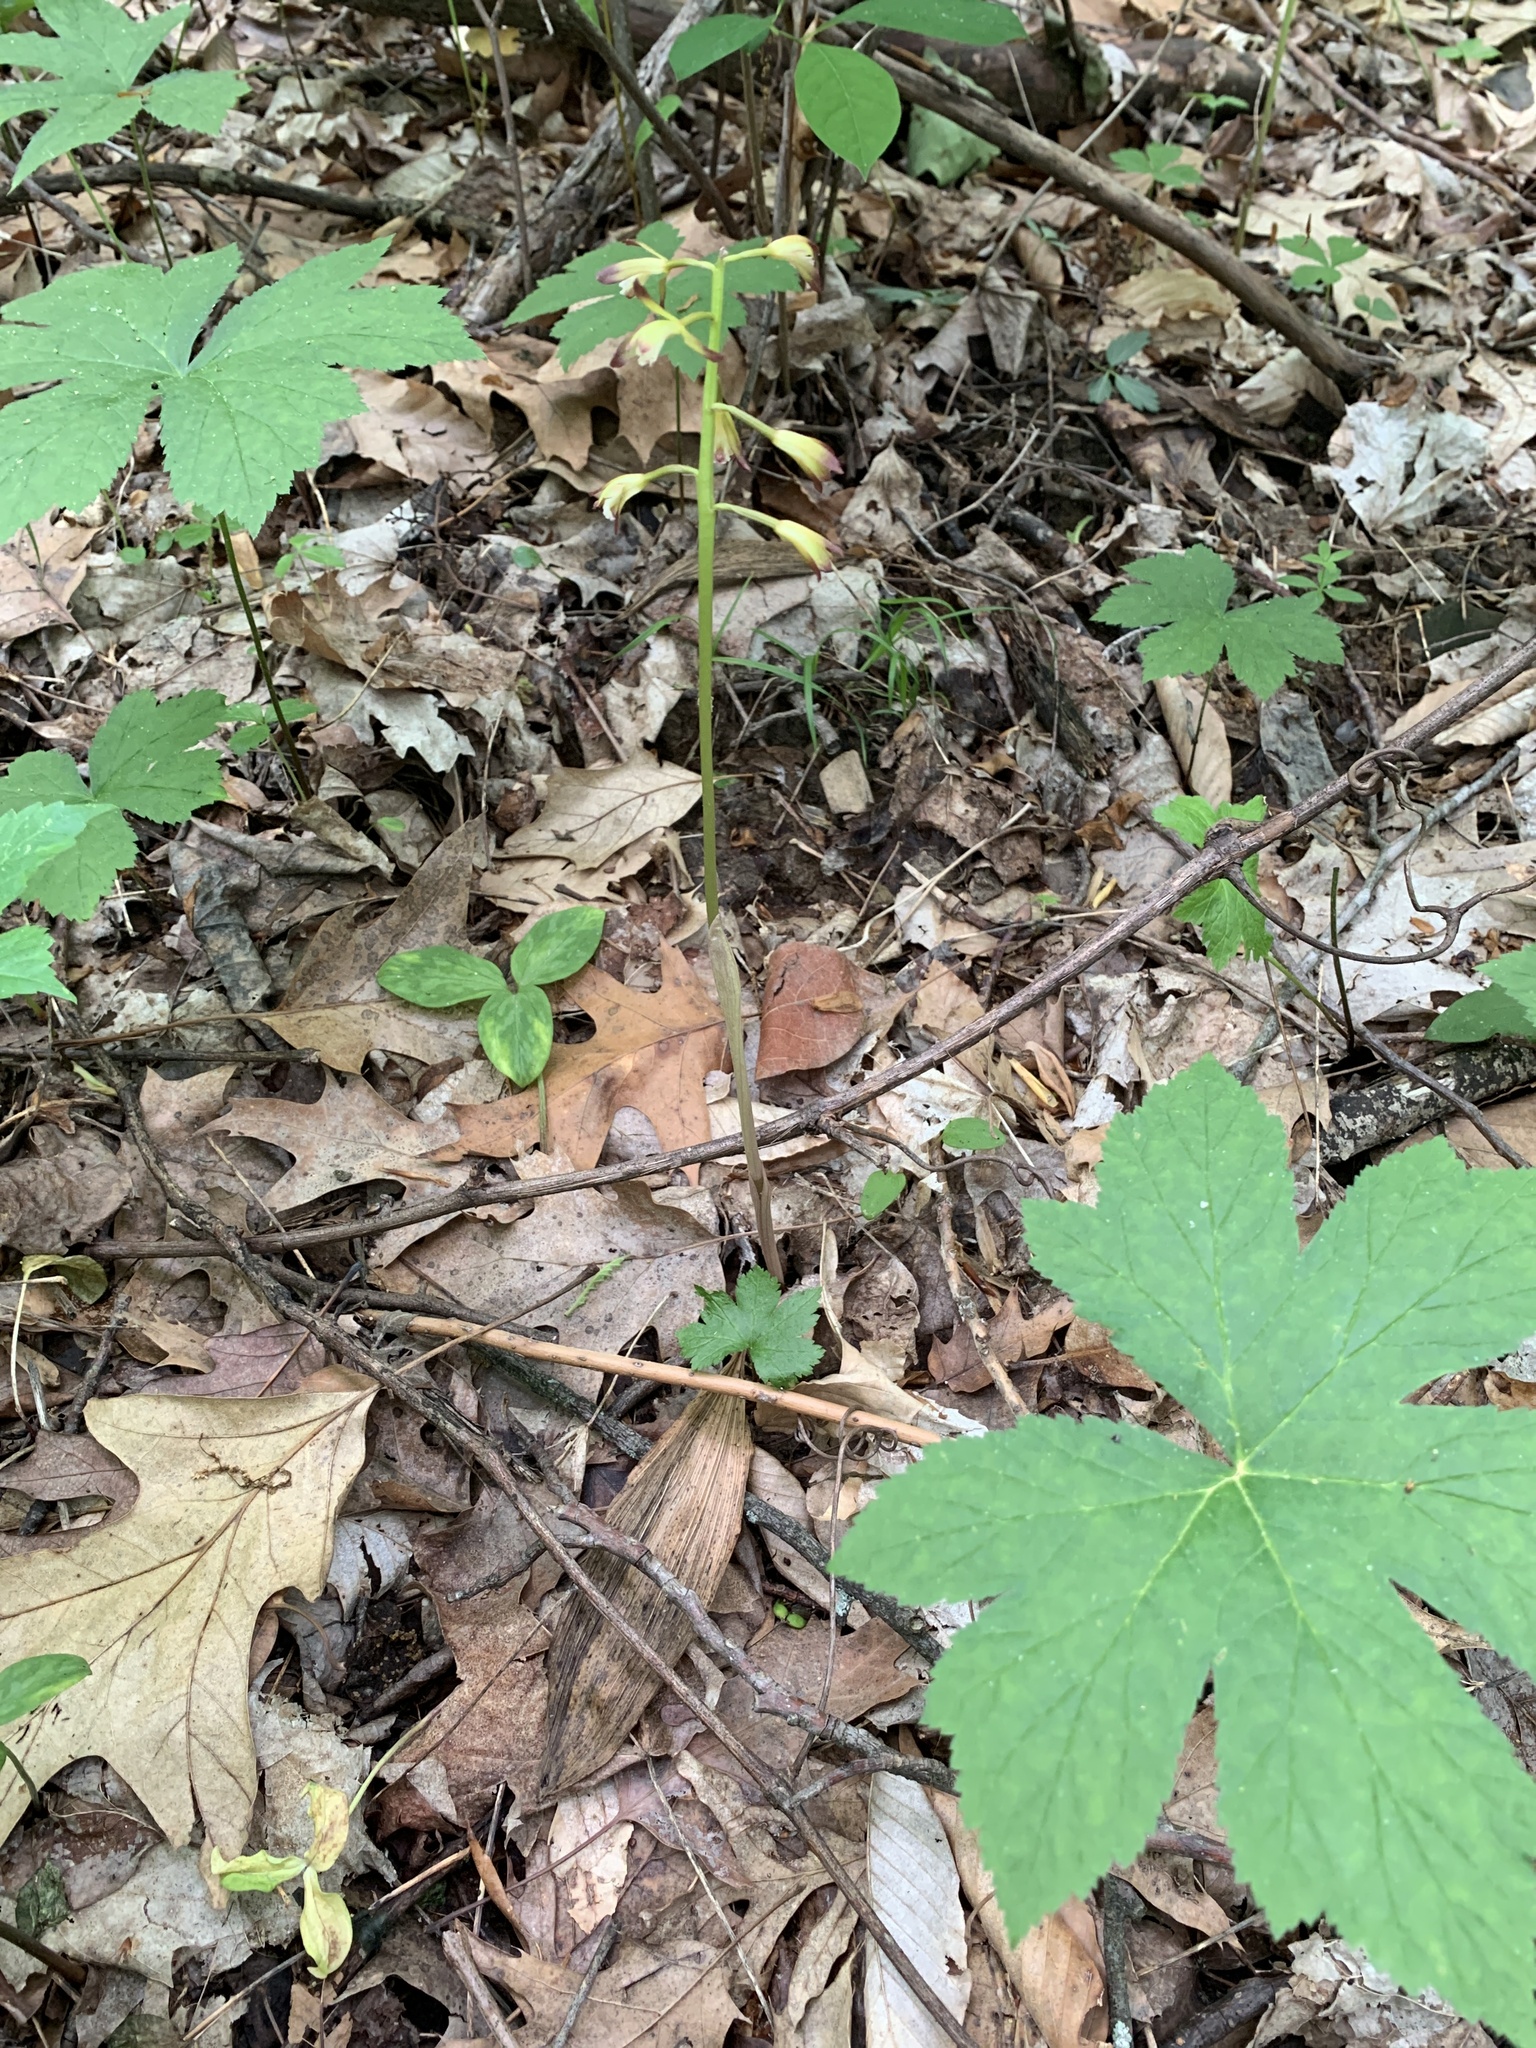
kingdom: Plantae
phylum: Tracheophyta
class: Liliopsida
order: Asparagales
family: Orchidaceae
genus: Aplectrum
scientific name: Aplectrum hyemale
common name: Adam-and-eve
